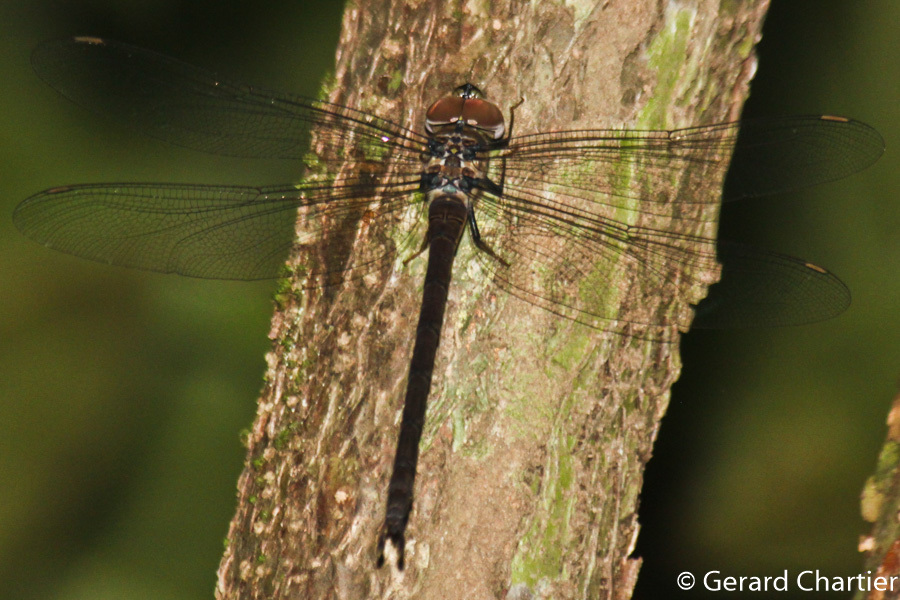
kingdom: Animalia
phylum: Arthropoda
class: Insecta
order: Odonata
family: Aeshnidae
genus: Heliaeschna
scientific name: Heliaeschna simplicia
